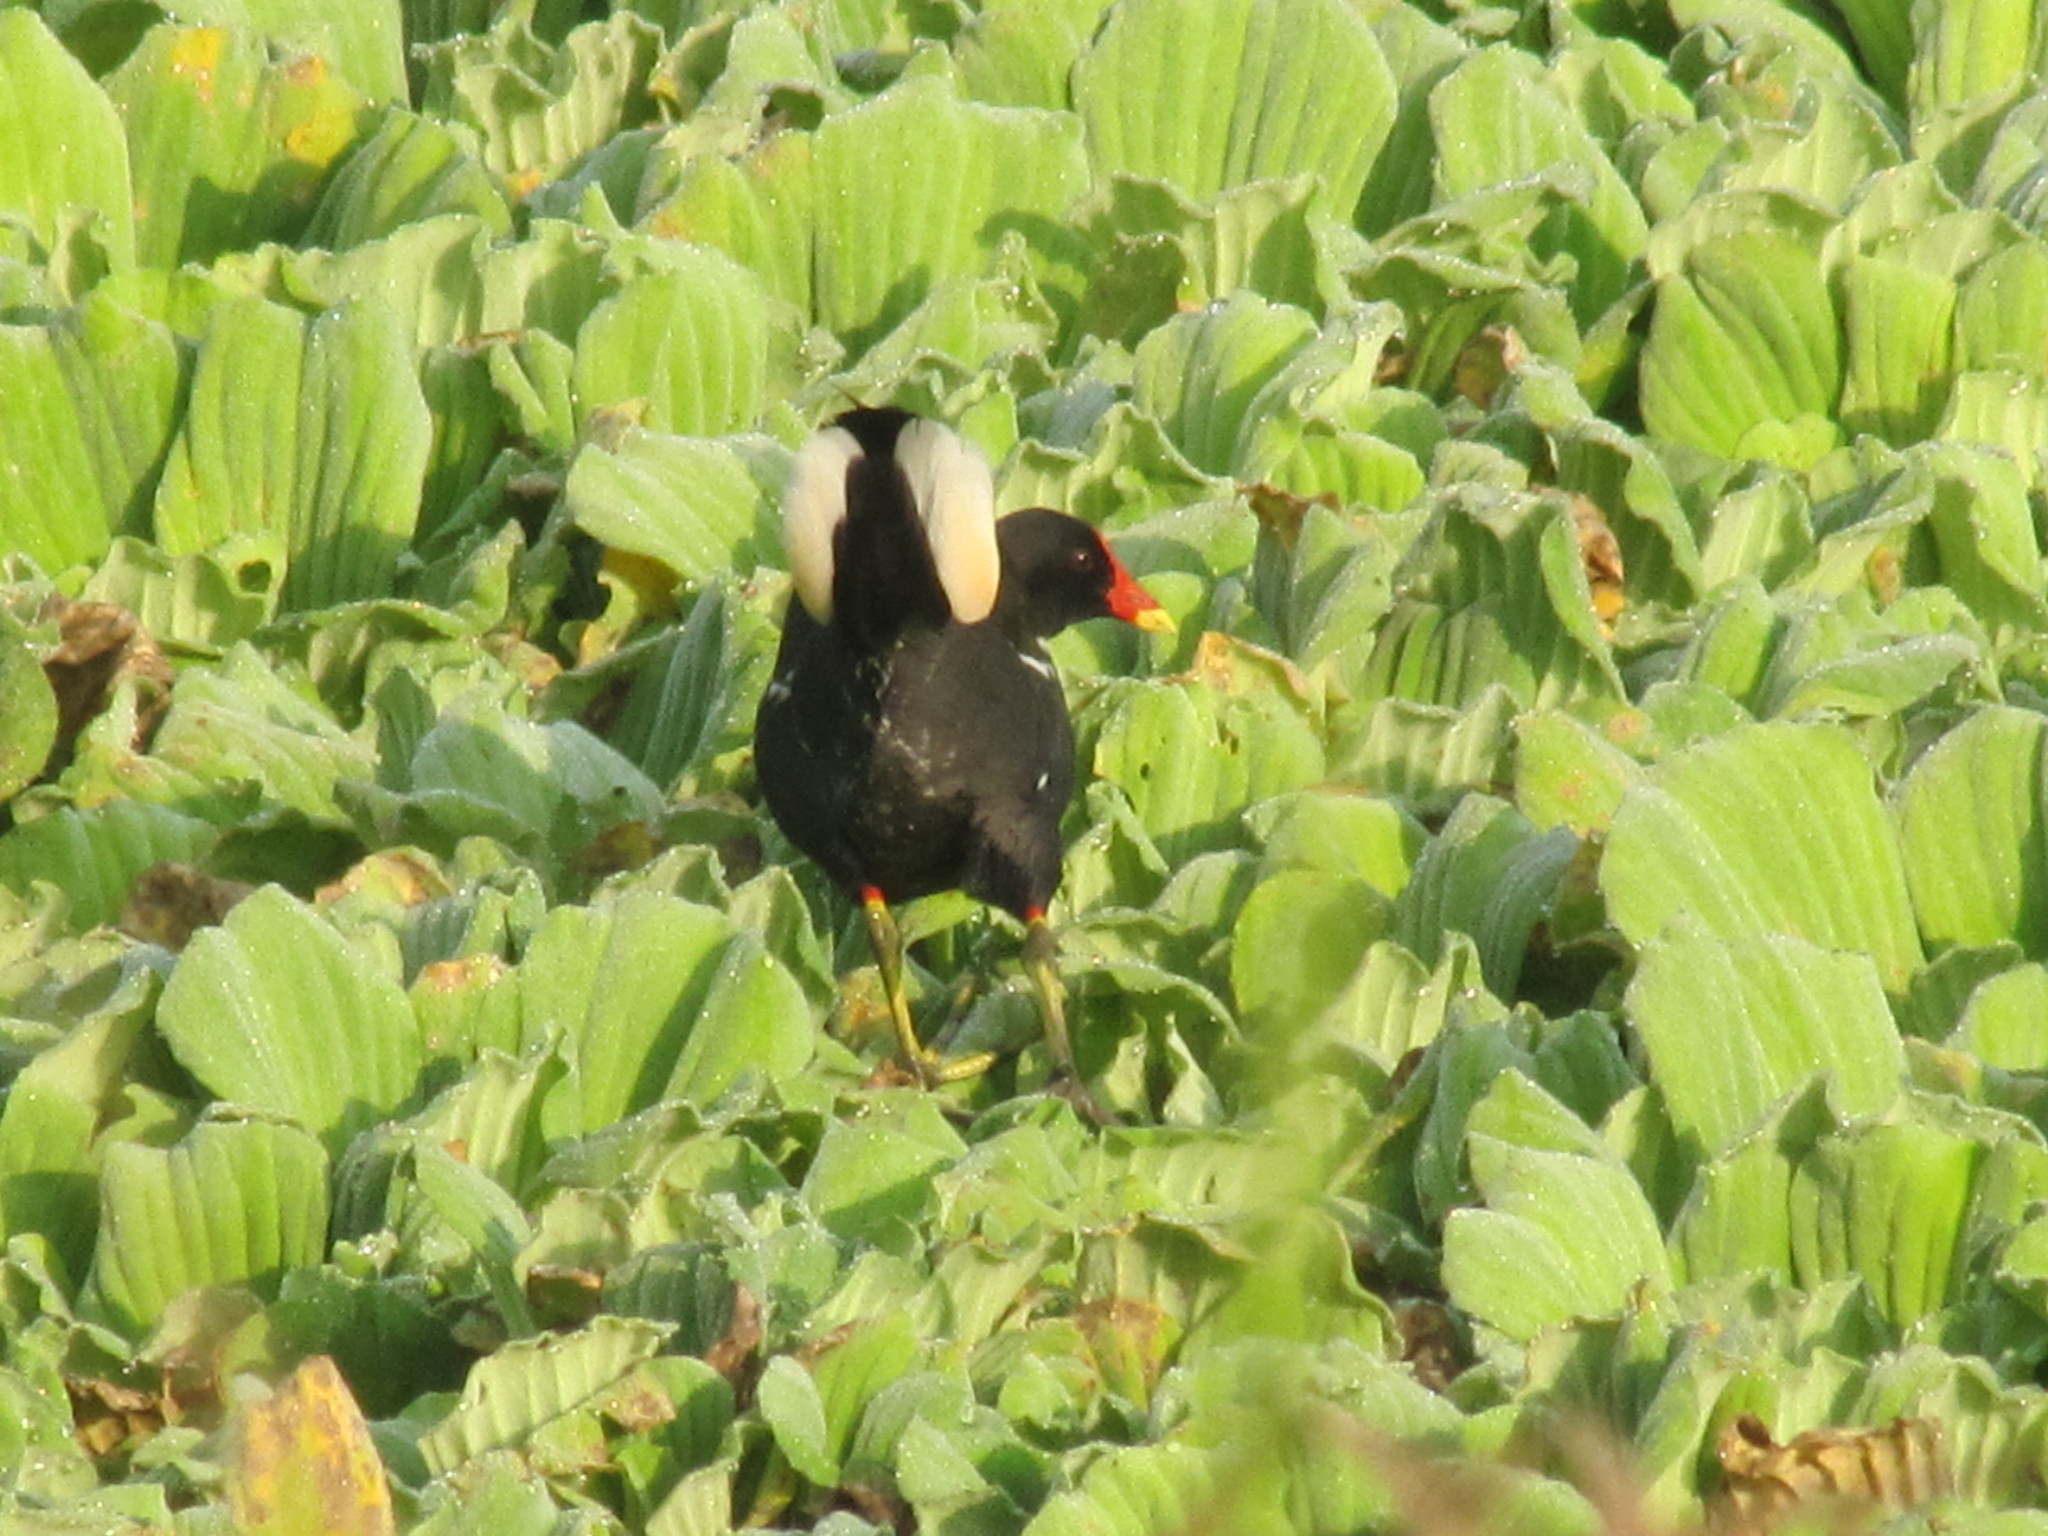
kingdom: Animalia
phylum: Chordata
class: Aves
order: Gruiformes
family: Rallidae
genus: Gallinula
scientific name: Gallinula chloropus
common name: Common moorhen
